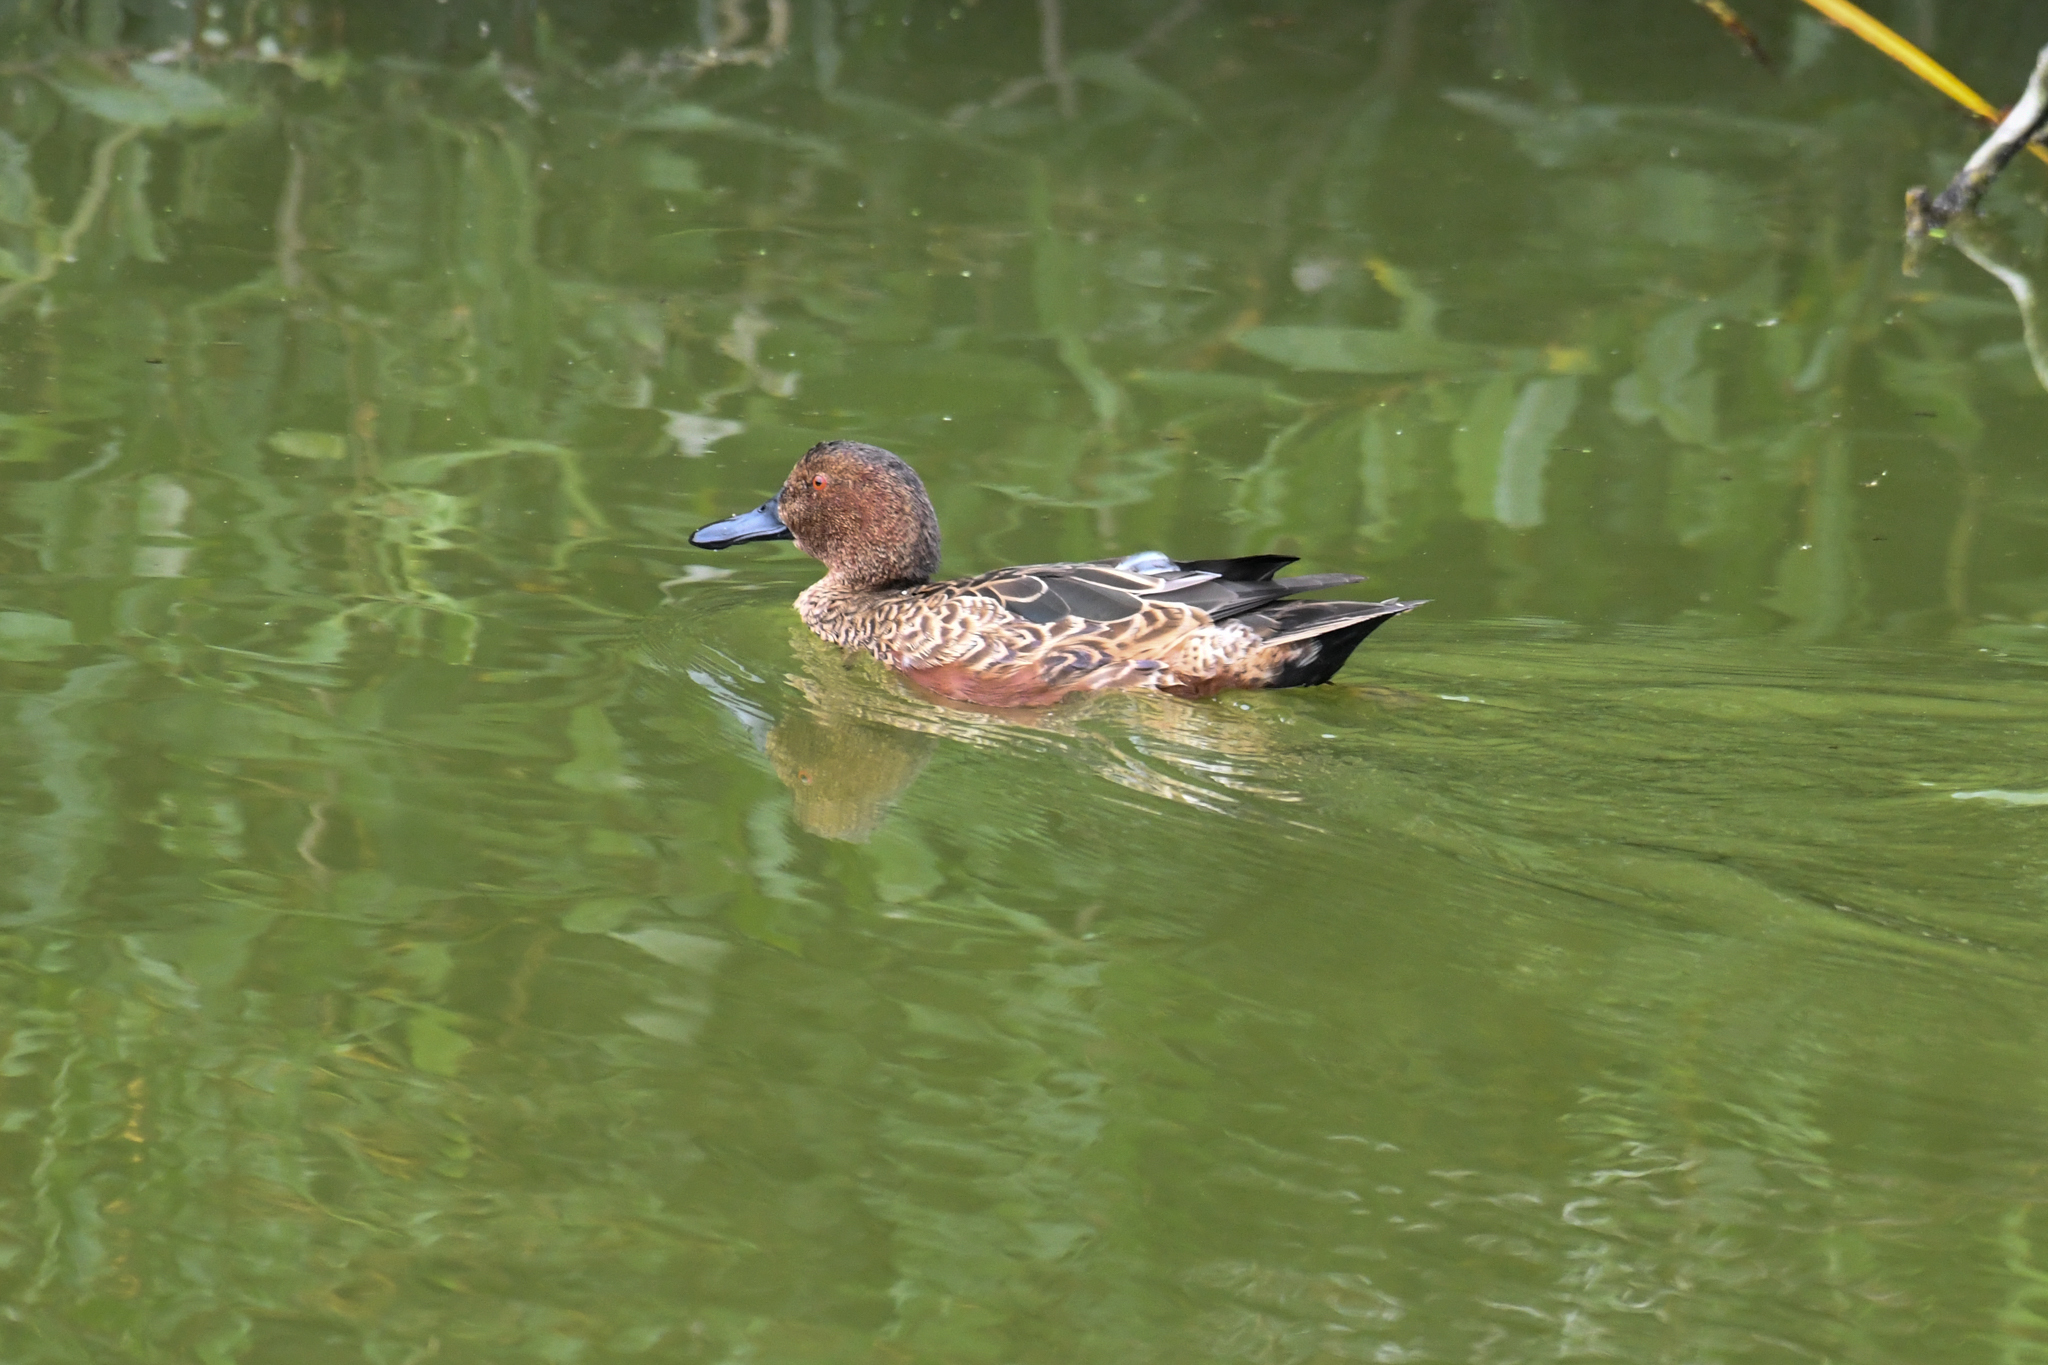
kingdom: Animalia
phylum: Chordata
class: Aves
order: Anseriformes
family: Anatidae
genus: Spatula
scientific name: Spatula cyanoptera
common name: Cinnamon teal
